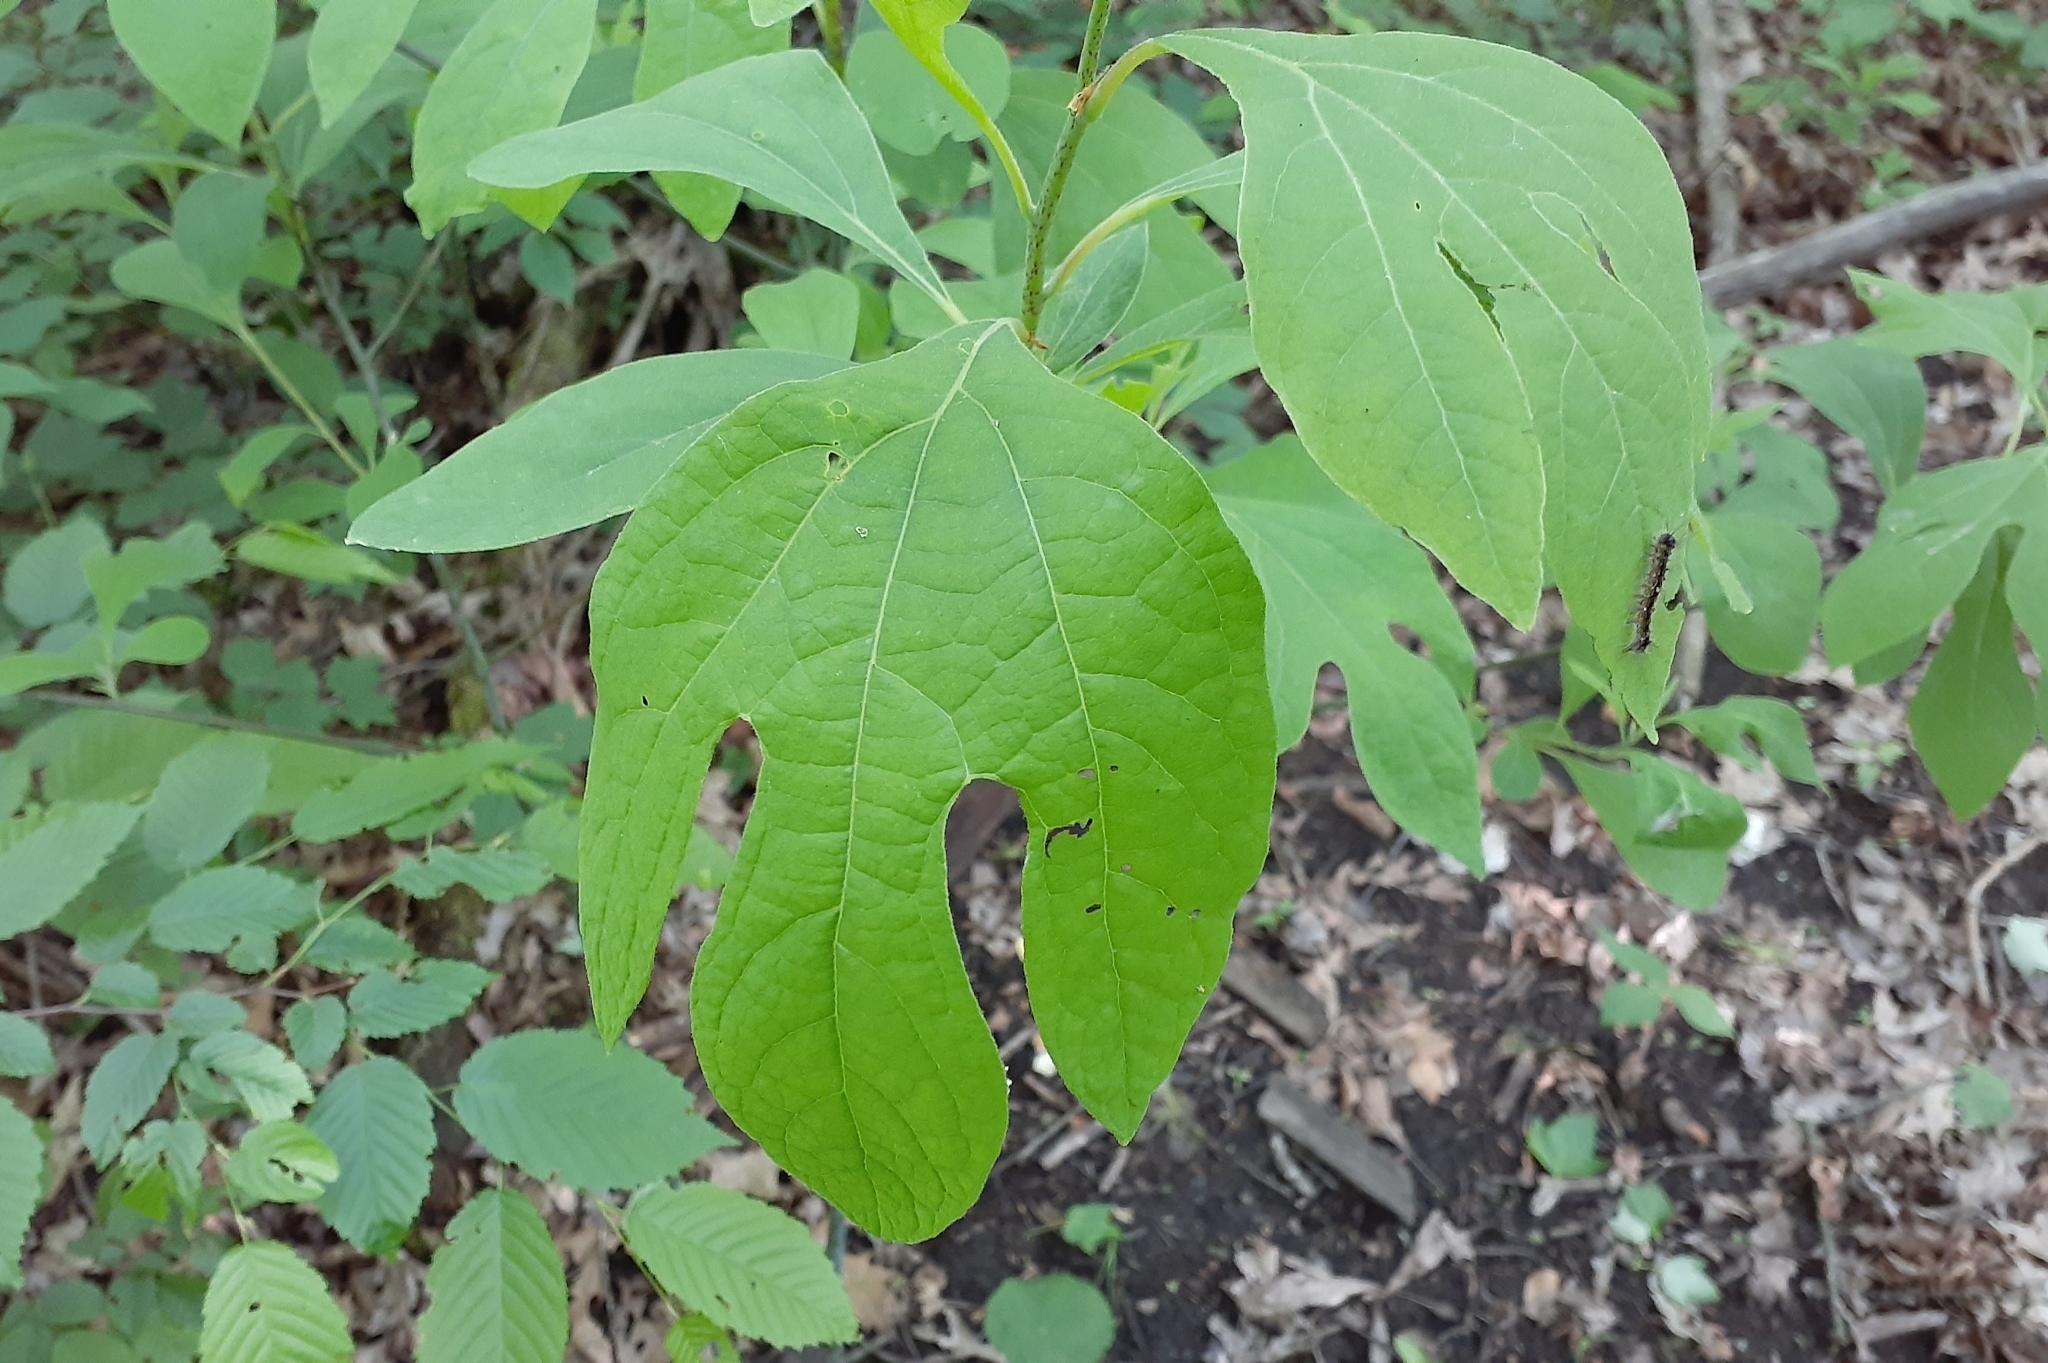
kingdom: Plantae
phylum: Tracheophyta
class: Magnoliopsida
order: Laurales
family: Lauraceae
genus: Sassafras
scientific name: Sassafras albidum
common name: Sassafras
